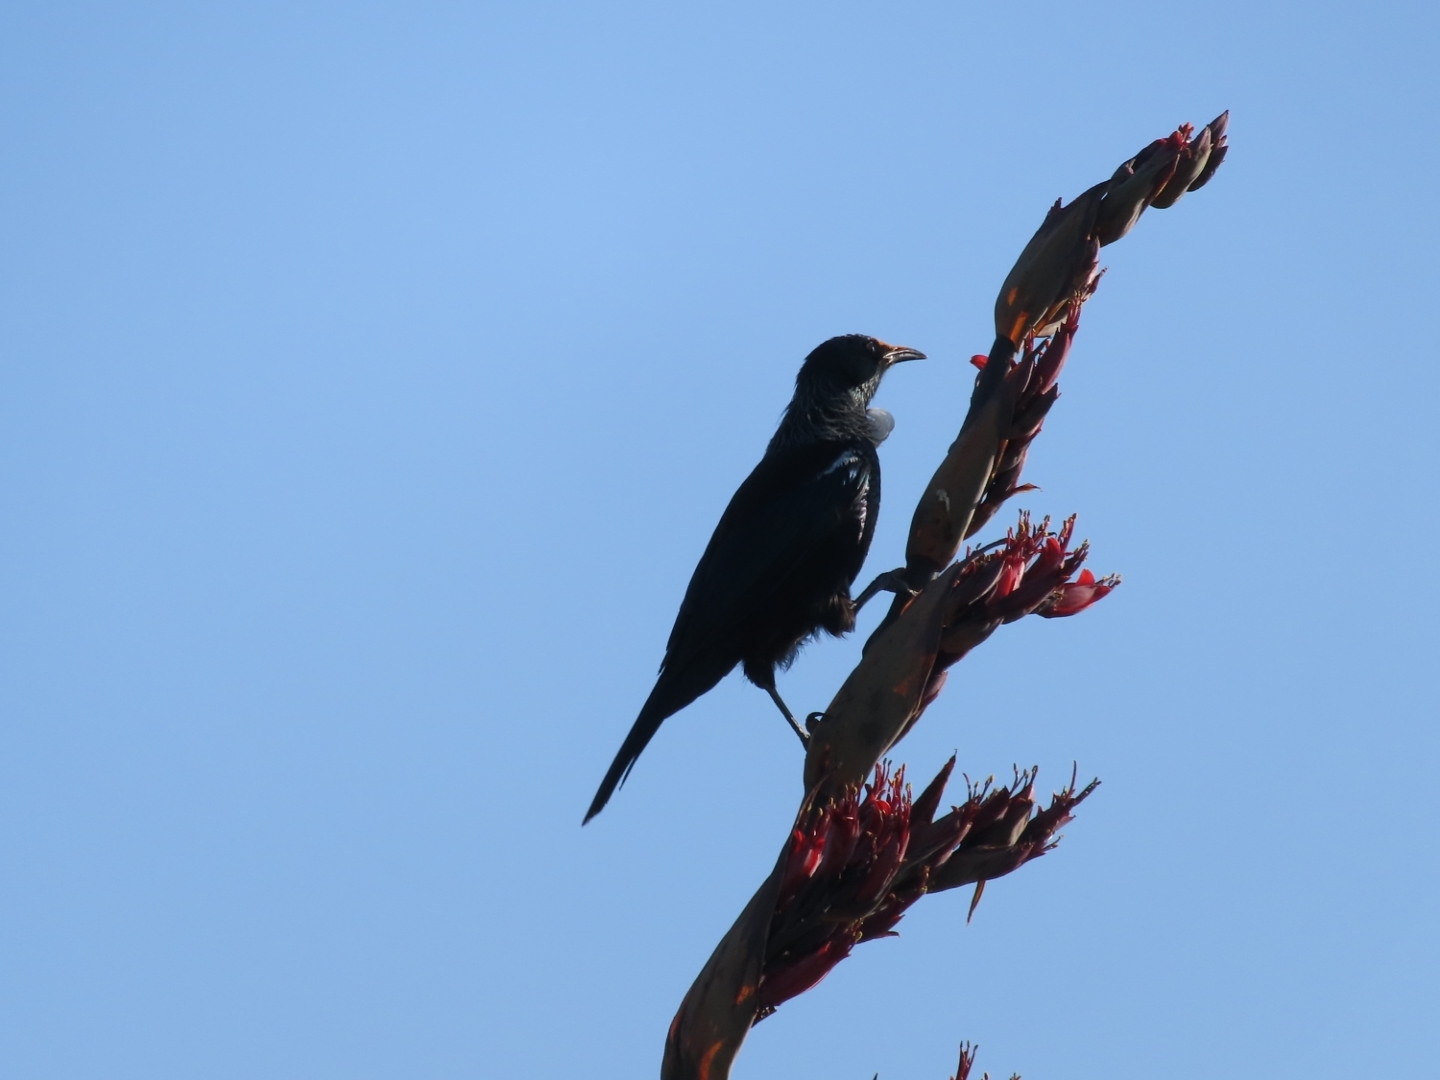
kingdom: Animalia
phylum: Chordata
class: Aves
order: Passeriformes
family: Meliphagidae
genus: Prosthemadera
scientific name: Prosthemadera novaeseelandiae
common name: Tui
